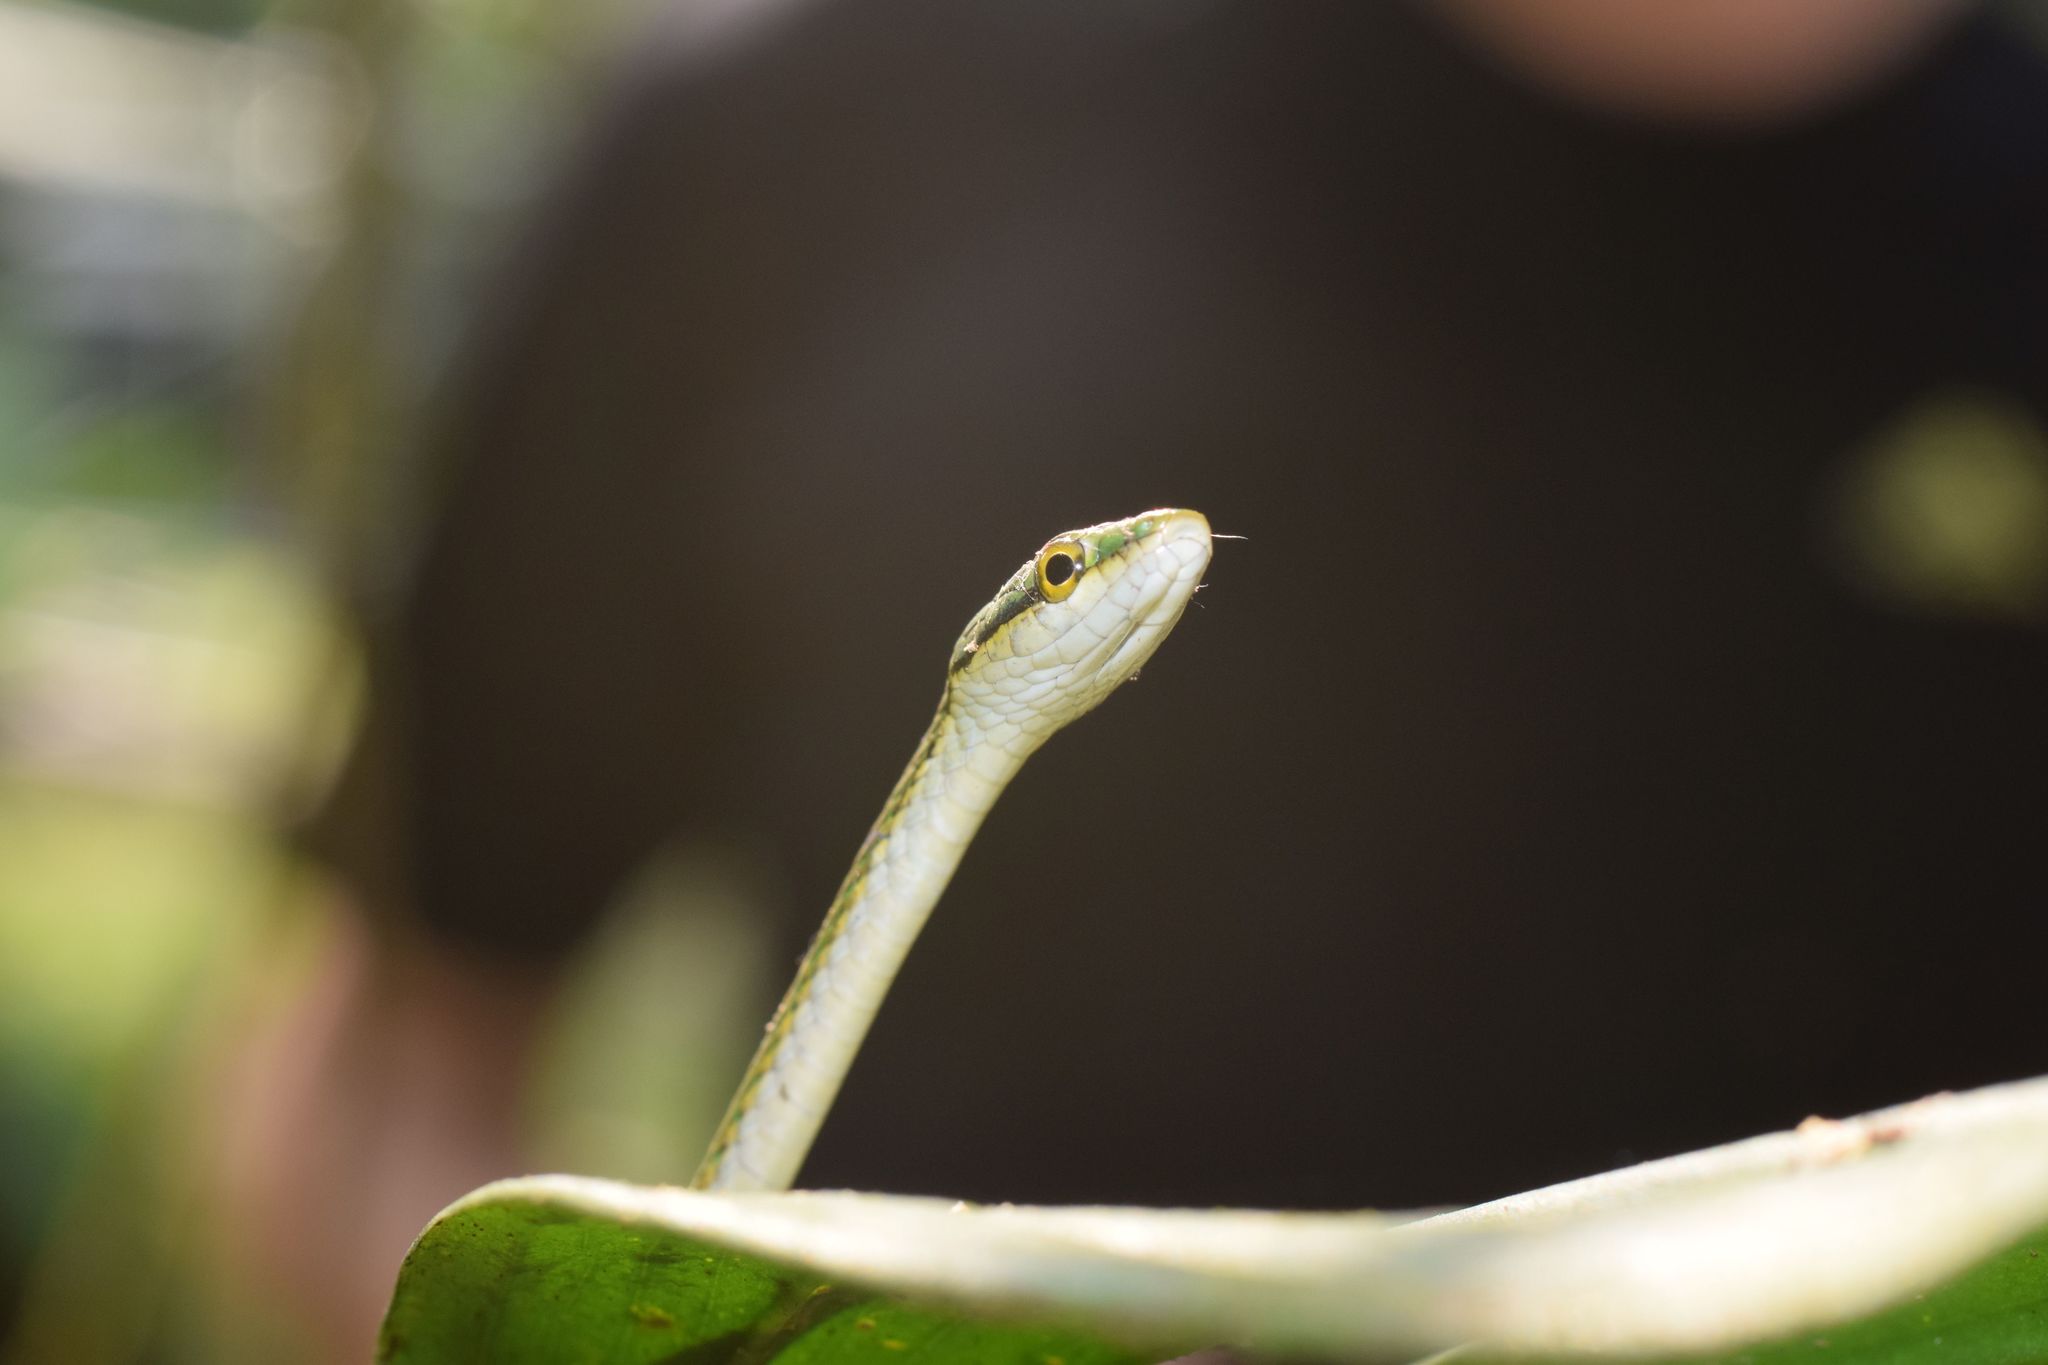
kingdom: Animalia
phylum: Chordata
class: Squamata
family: Colubridae
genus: Leptophis
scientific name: Leptophis nebulosus
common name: Oliver's parrot snake
